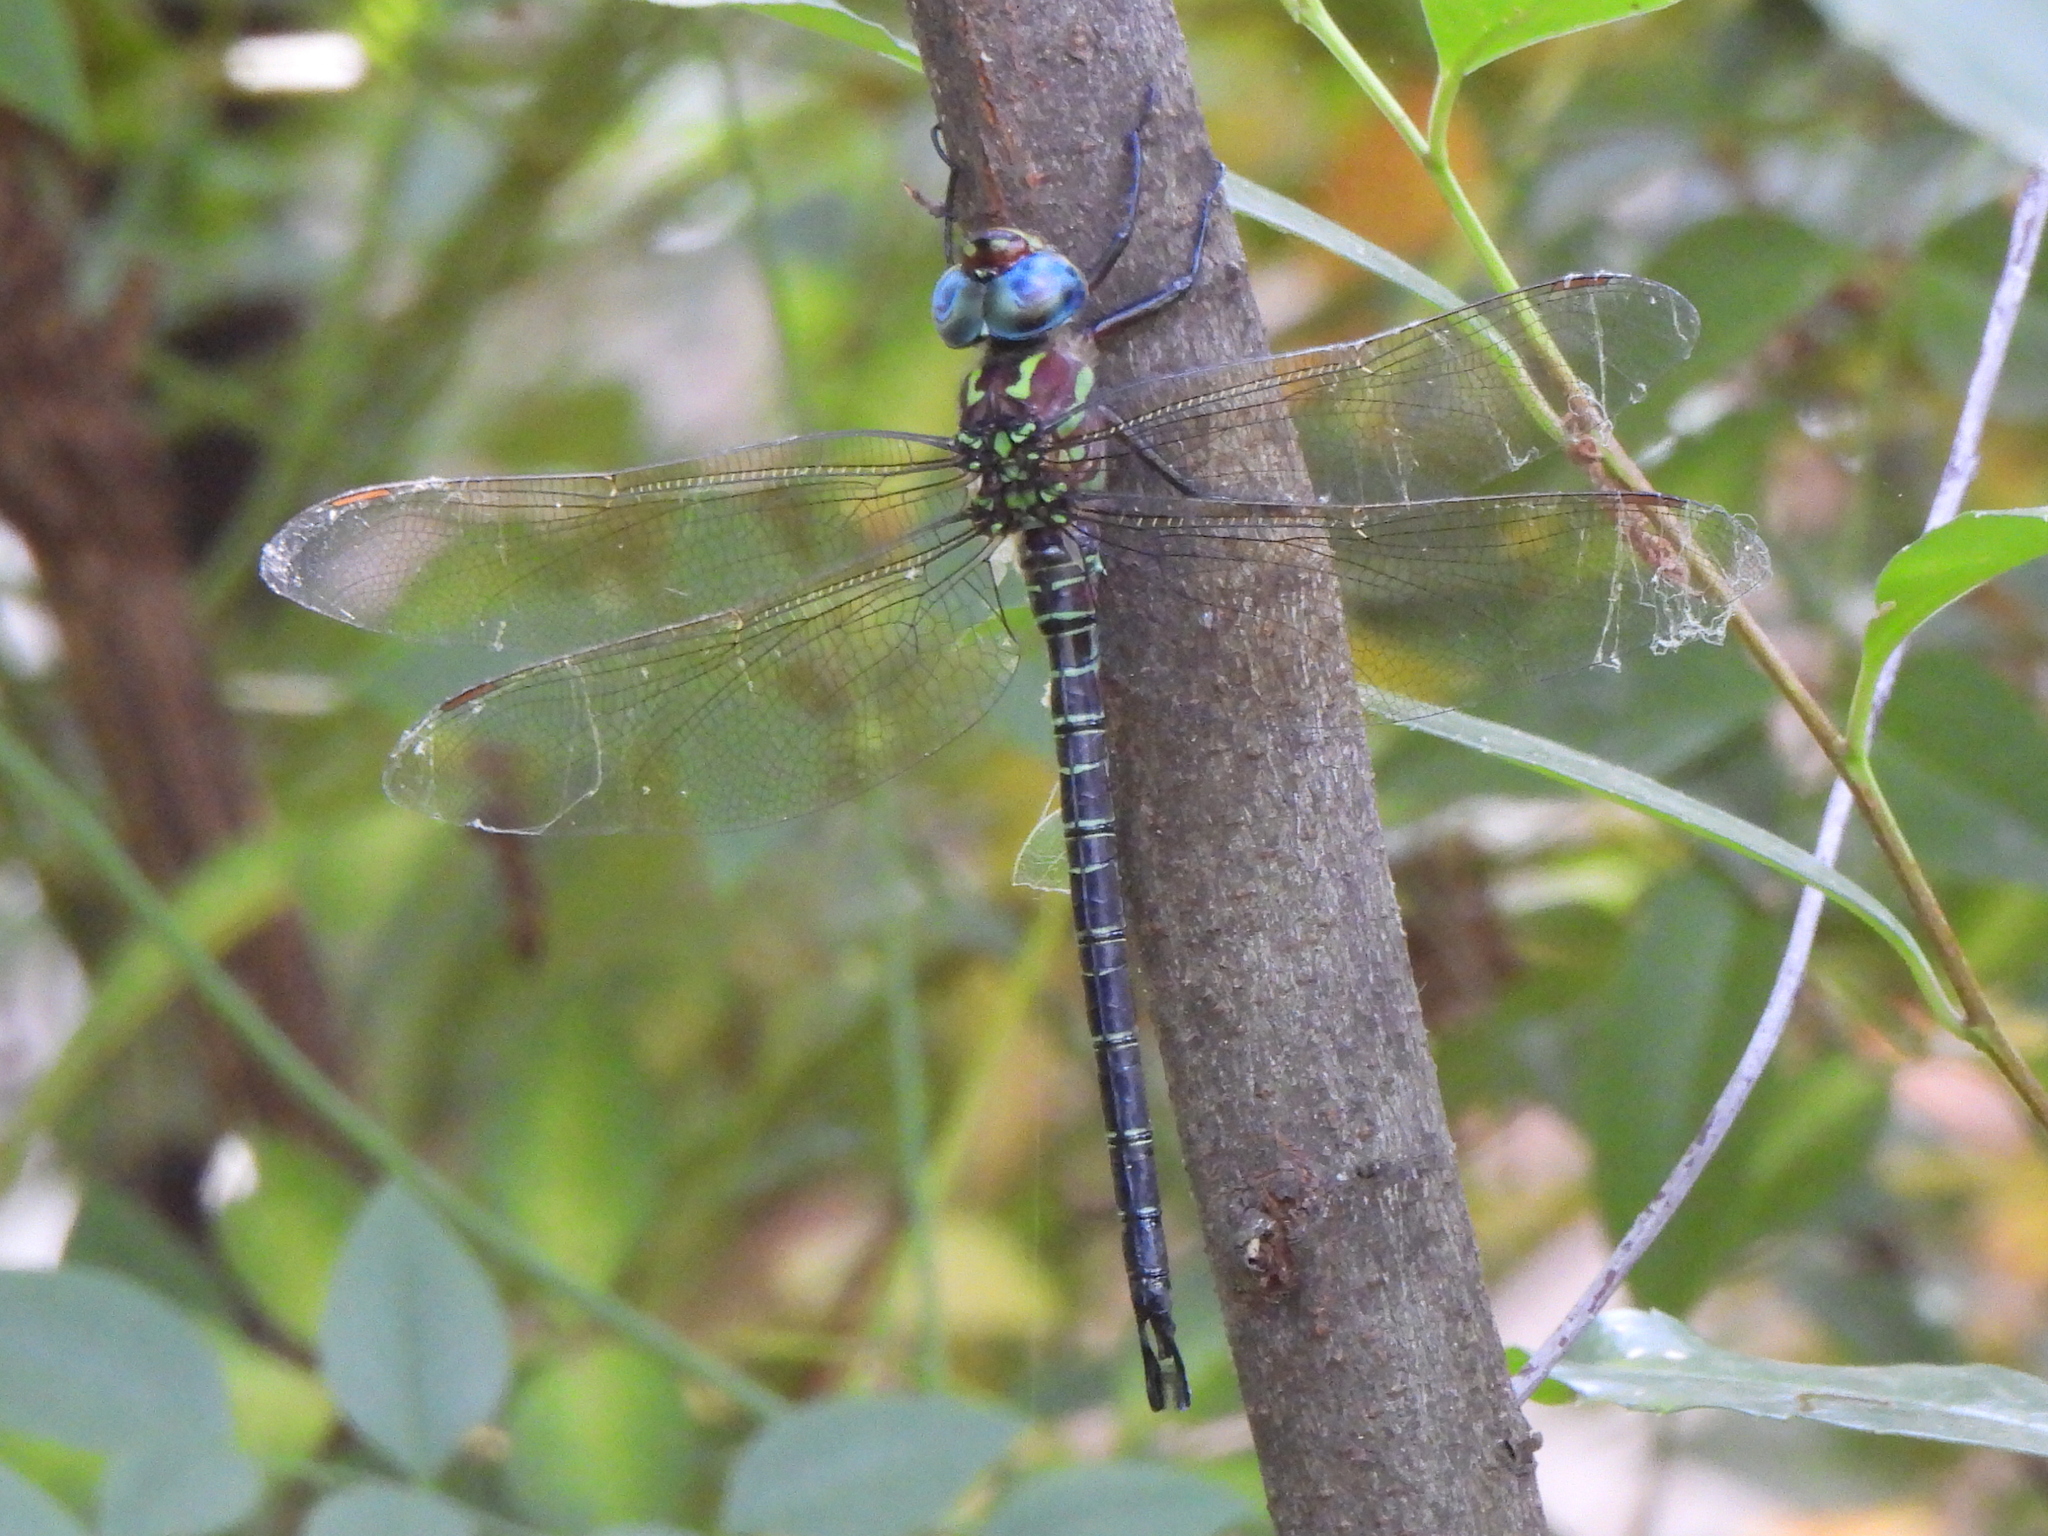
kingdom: Animalia
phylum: Arthropoda
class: Insecta
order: Odonata
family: Aeshnidae
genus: Epiaeschna
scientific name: Epiaeschna heros
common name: Swamp darner
